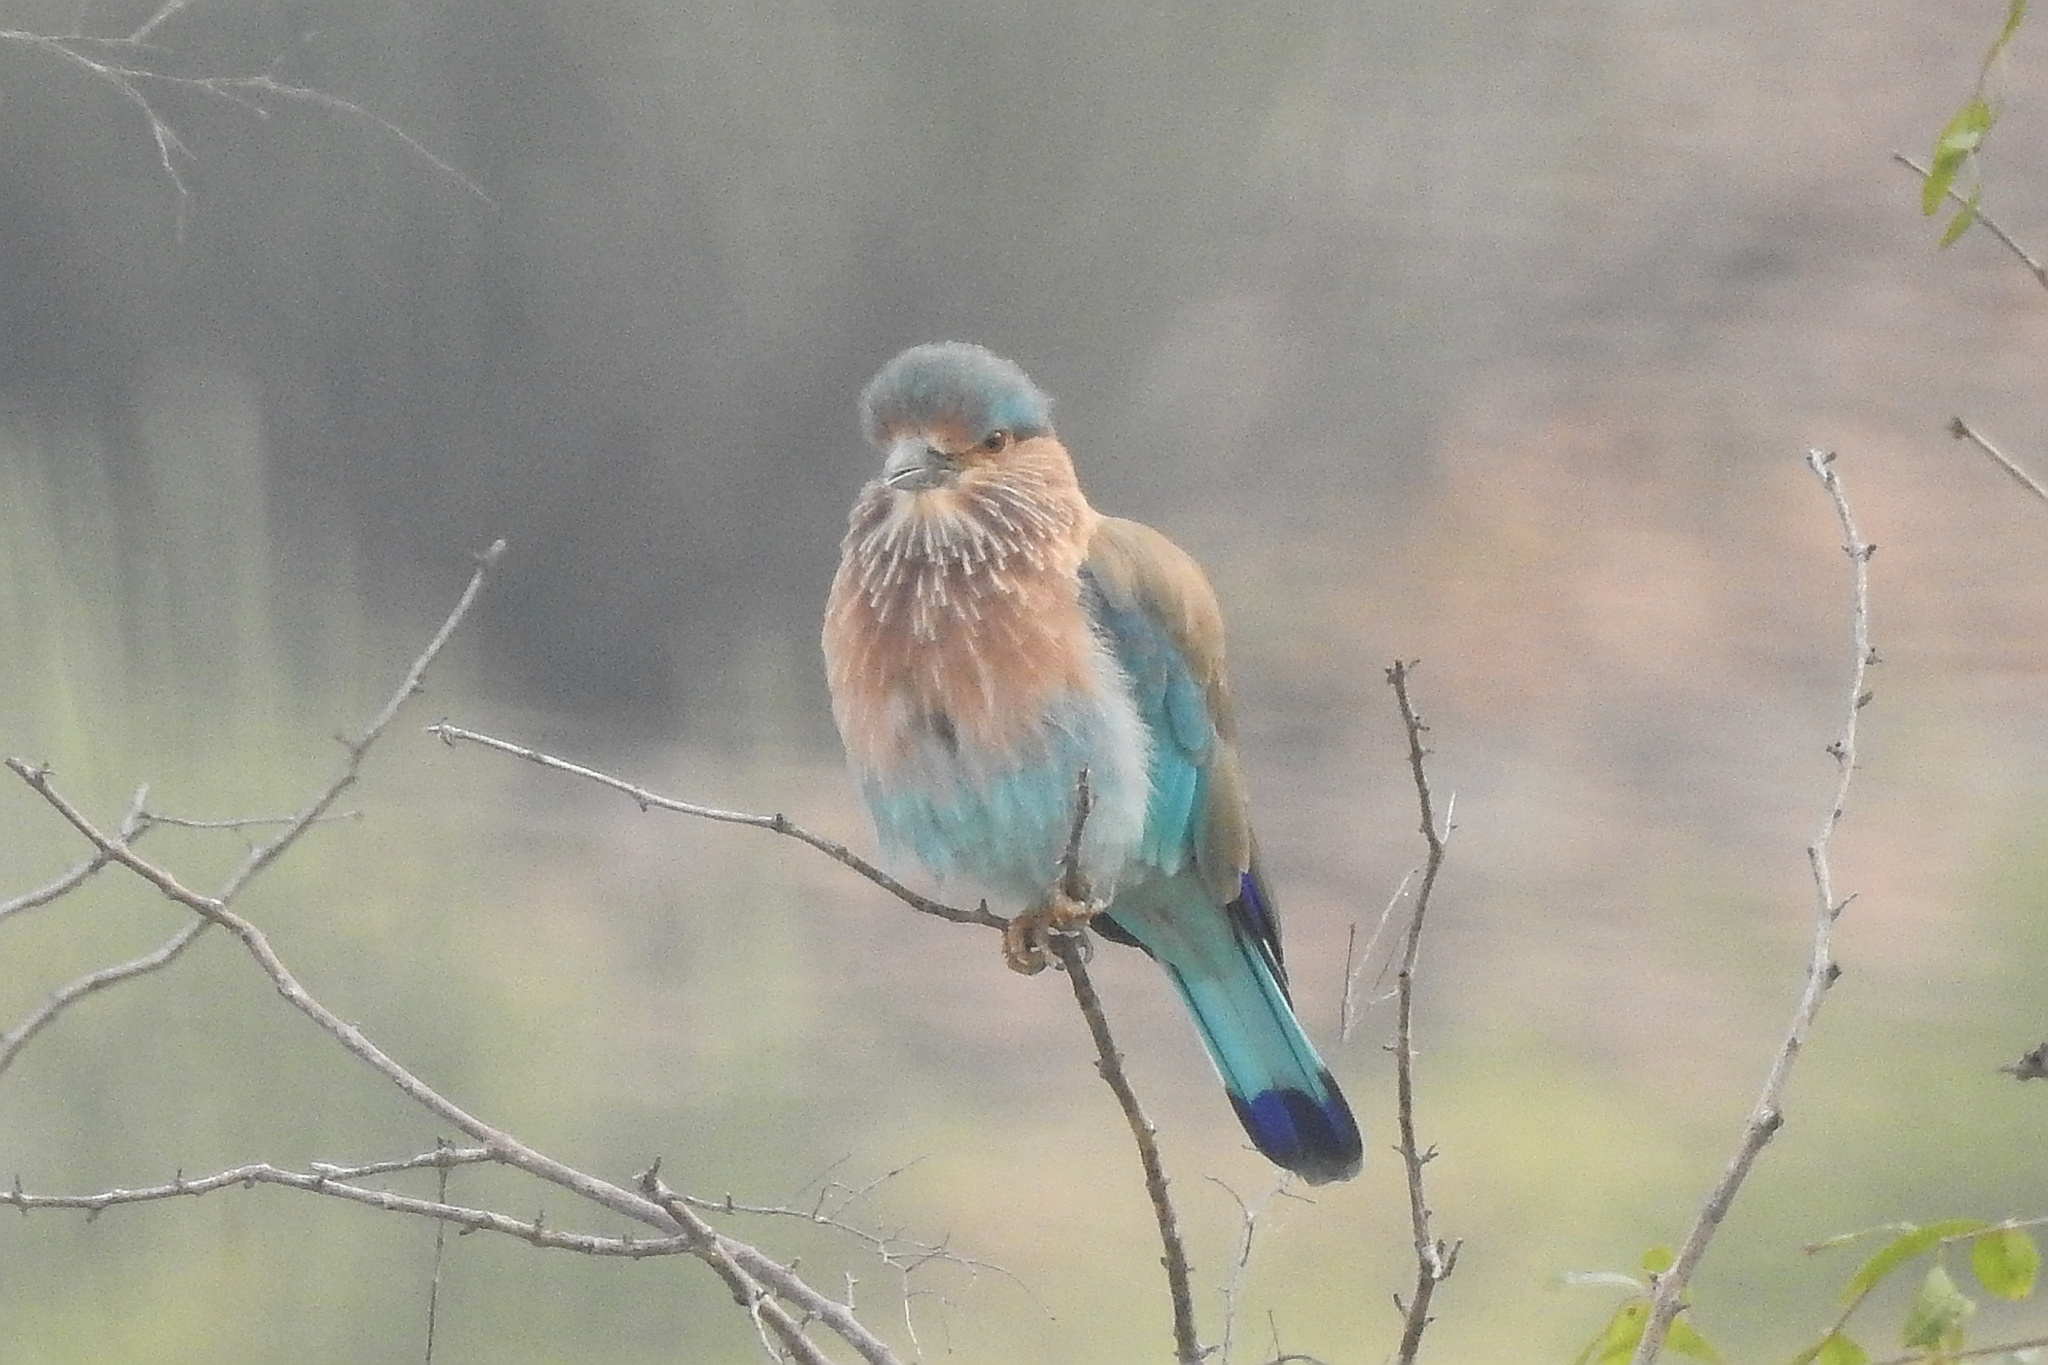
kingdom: Animalia
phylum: Chordata
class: Aves
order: Coraciiformes
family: Coraciidae
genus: Coracias
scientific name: Coracias benghalensis
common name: Indian roller
